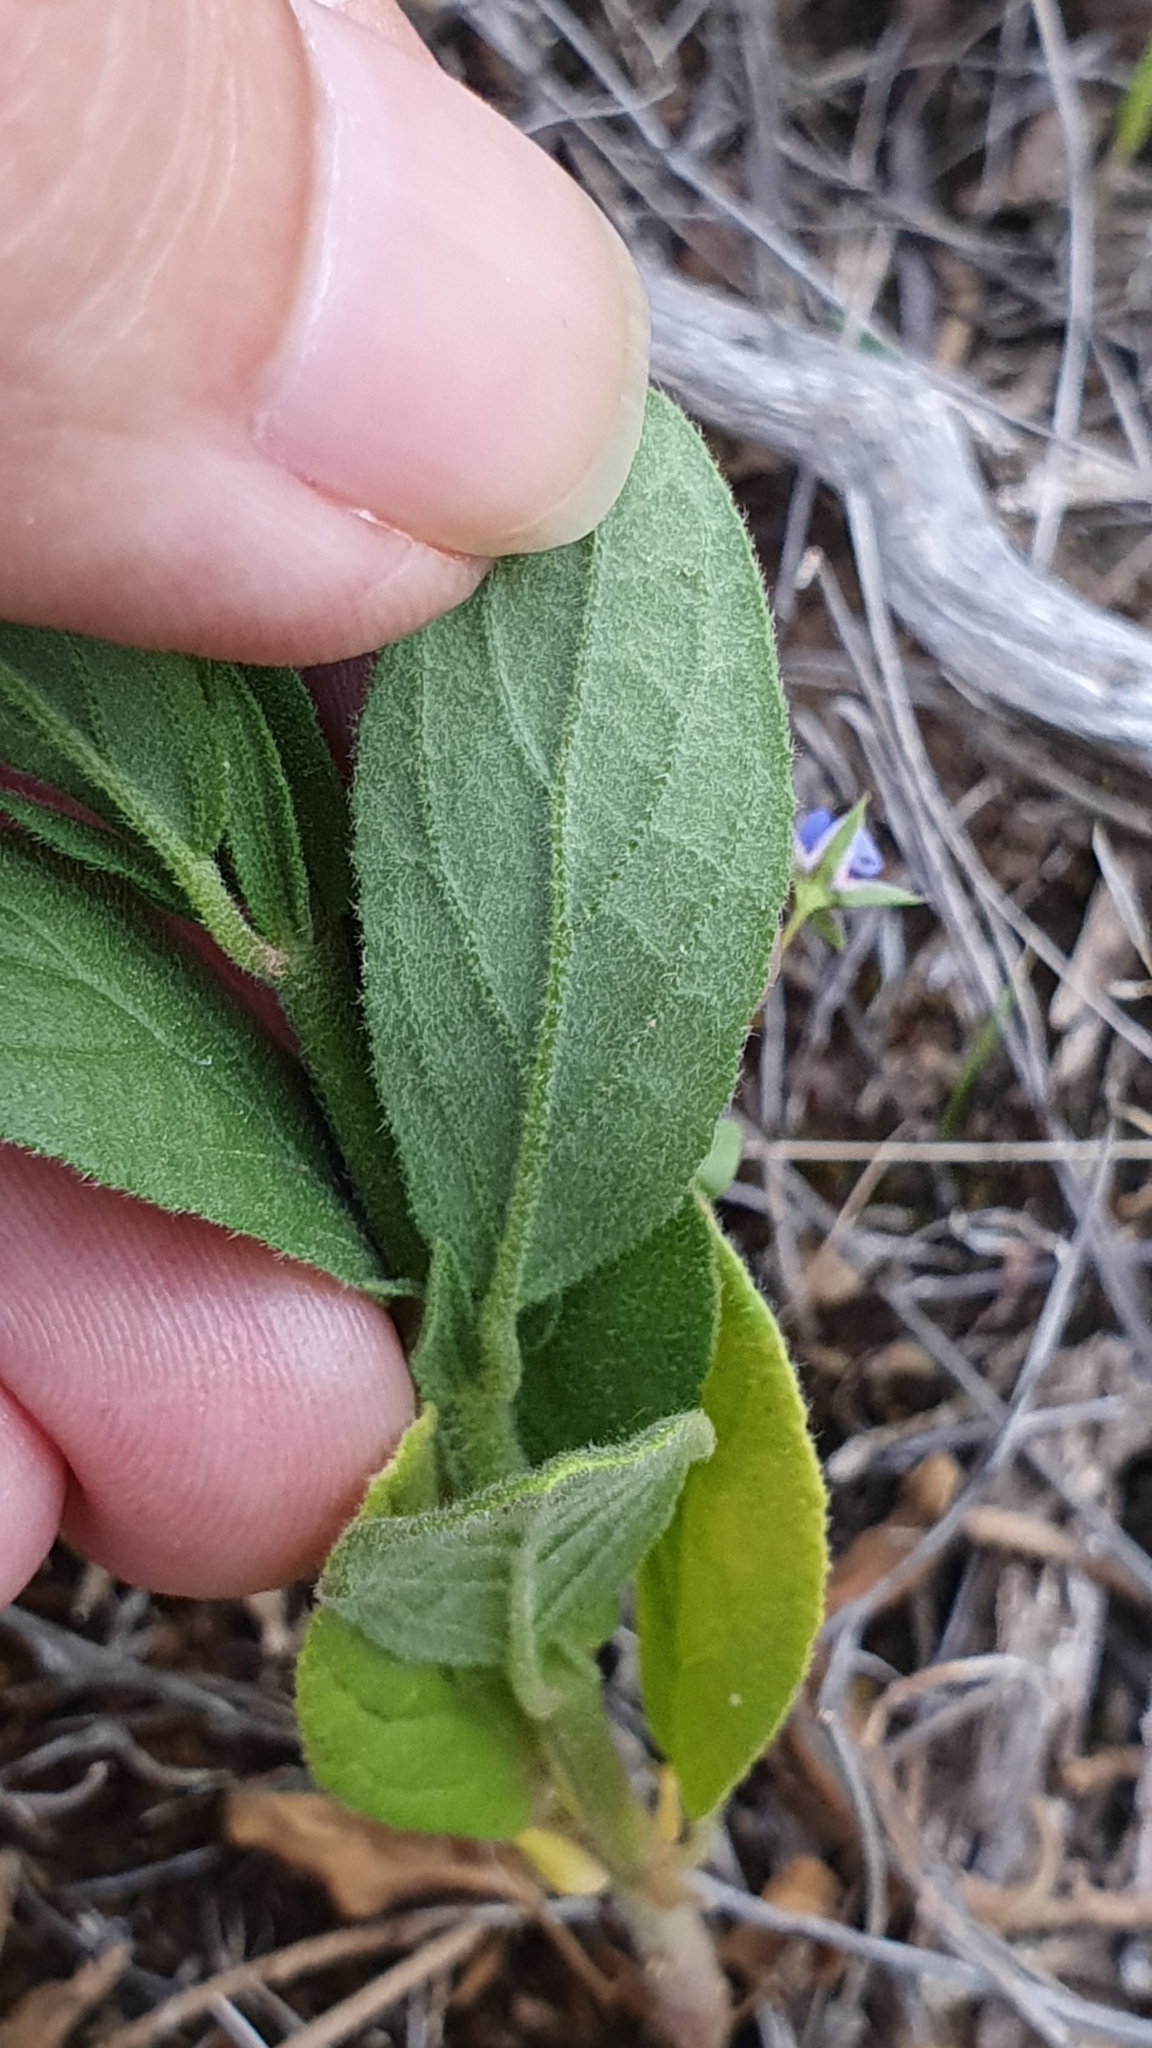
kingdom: Plantae
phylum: Tracheophyta
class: Magnoliopsida
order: Malvales
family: Cistaceae
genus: Helianthemum
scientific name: Helianthemum ledifolium
